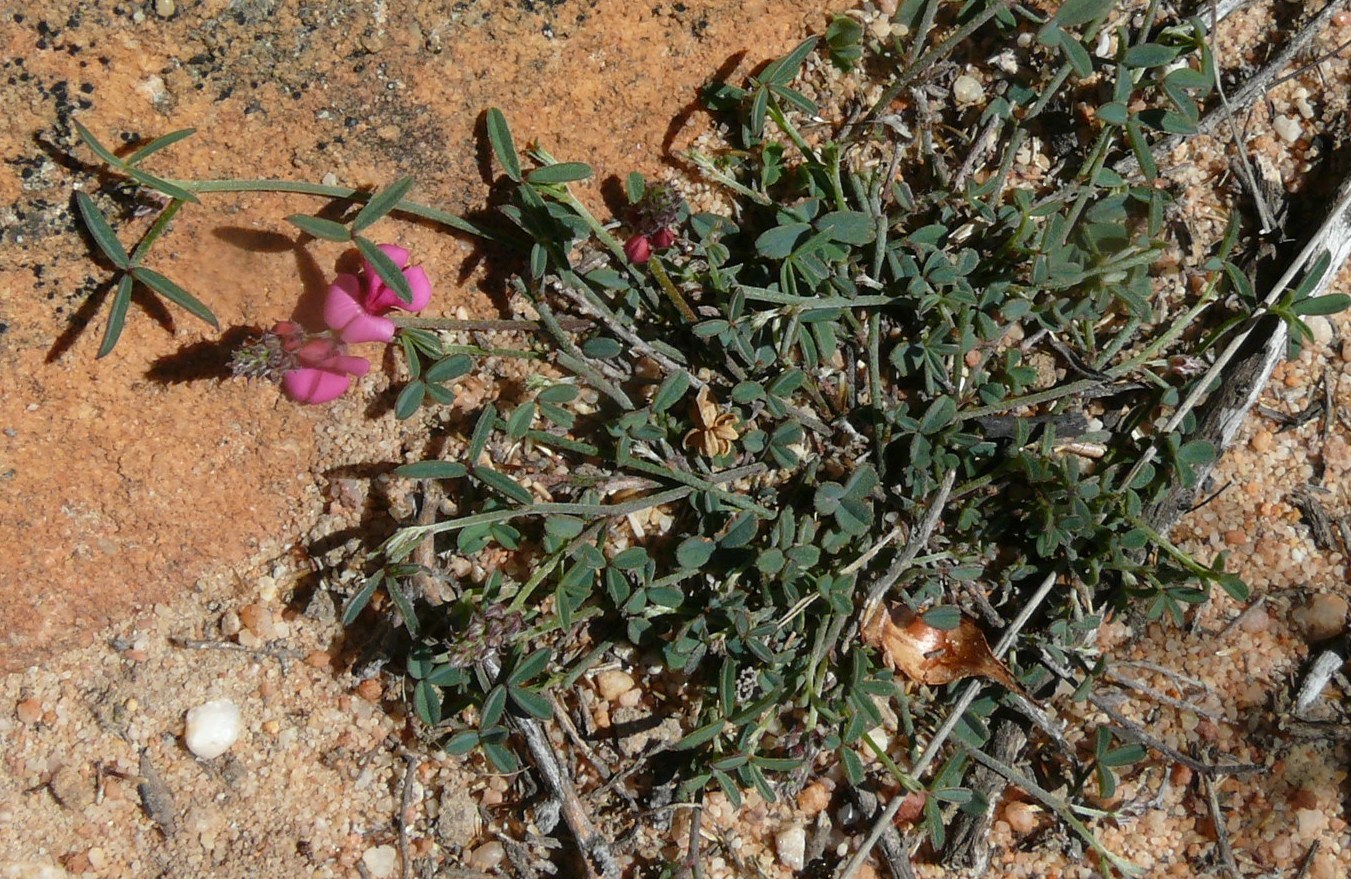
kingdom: Plantae
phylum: Tracheophyta
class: Magnoliopsida
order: Fabales
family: Fabaceae
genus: Indigofera
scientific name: Indigofera venusta
